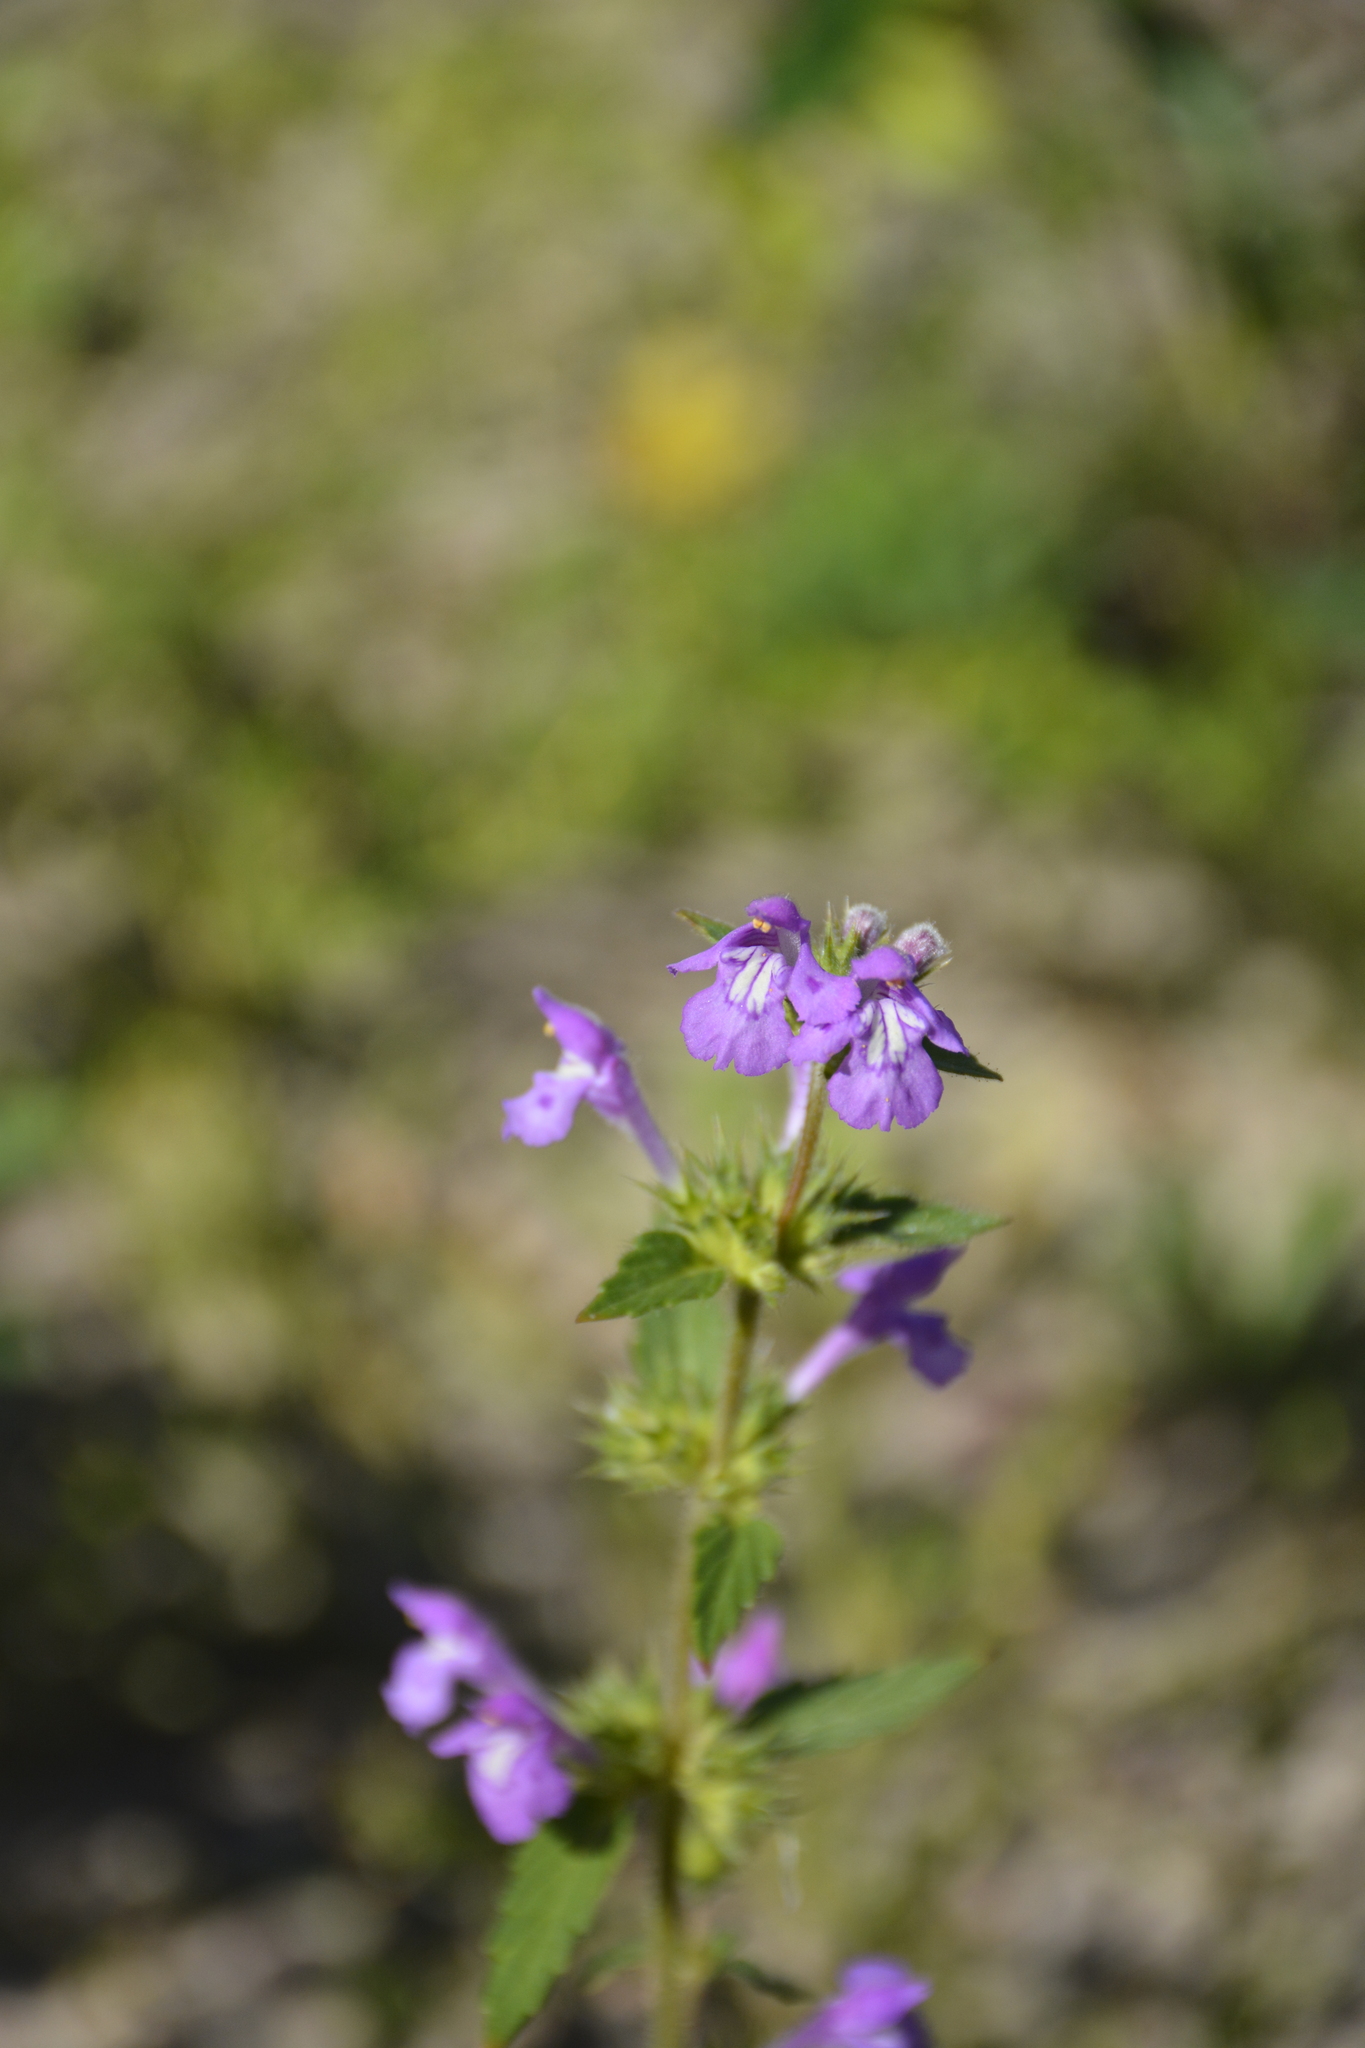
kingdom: Plantae
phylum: Tracheophyta
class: Magnoliopsida
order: Lamiales
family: Lamiaceae
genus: Galeopsis
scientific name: Galeopsis ladanum
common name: Broad-leaved hemp-nettle
